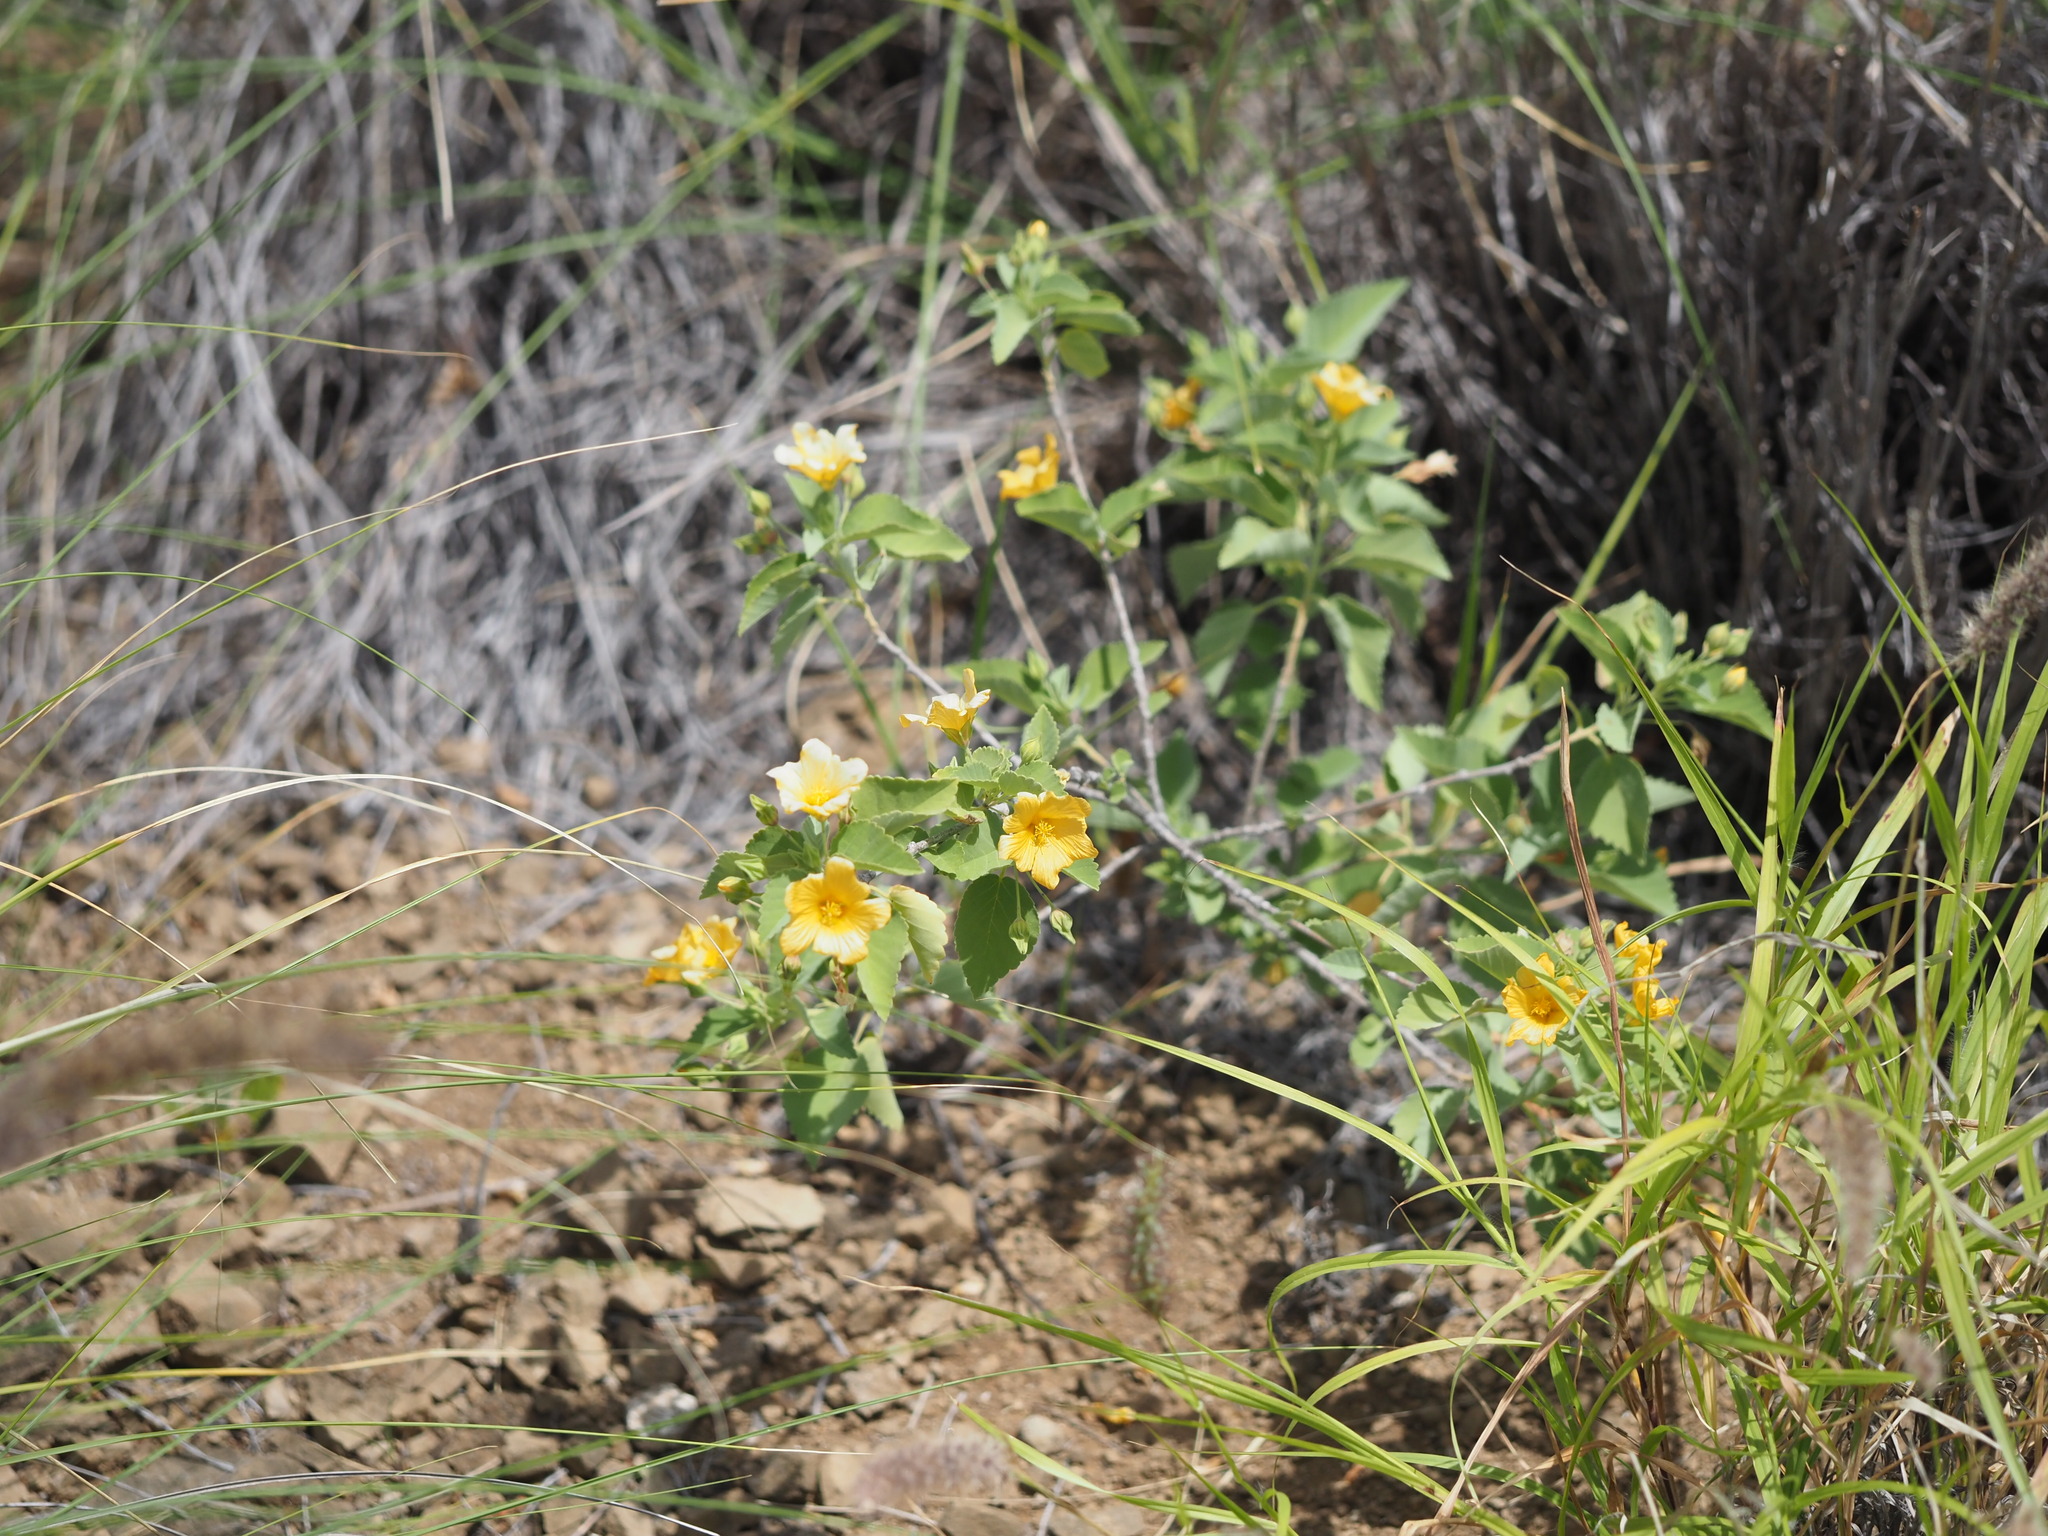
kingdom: Plantae
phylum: Tracheophyta
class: Magnoliopsida
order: Malvales
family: Malvaceae
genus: Sida
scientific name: Sida fallax
